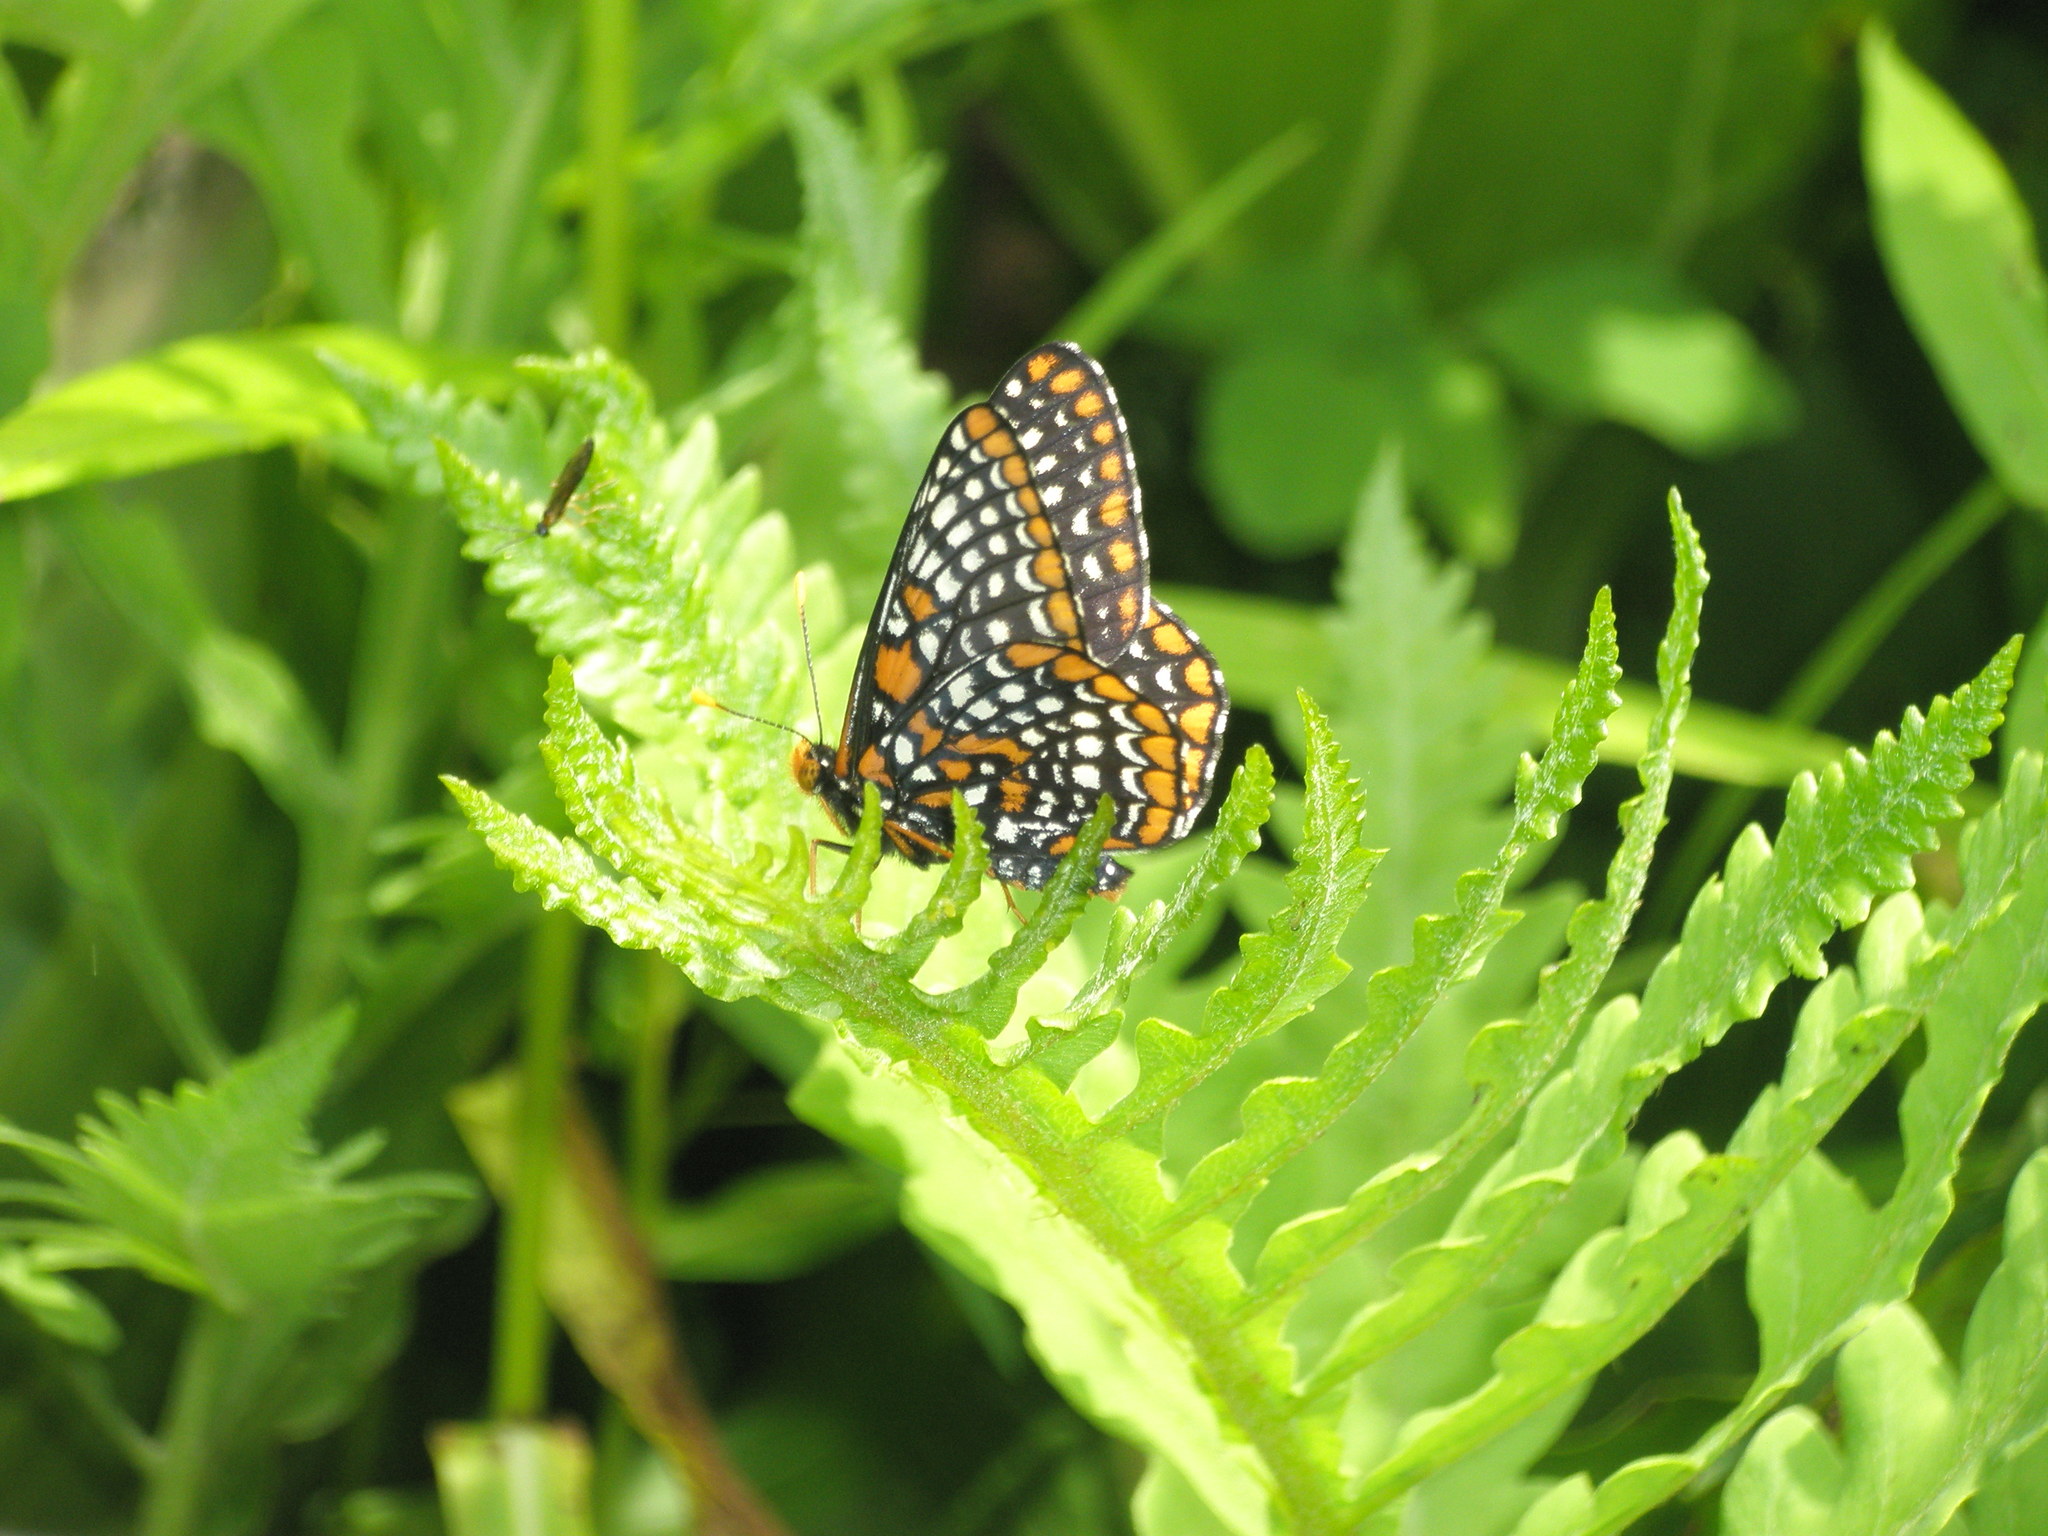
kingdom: Animalia
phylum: Arthropoda
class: Insecta
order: Lepidoptera
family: Nymphalidae
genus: Euphydryas
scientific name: Euphydryas phaeton
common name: Baltimore checkerspot
